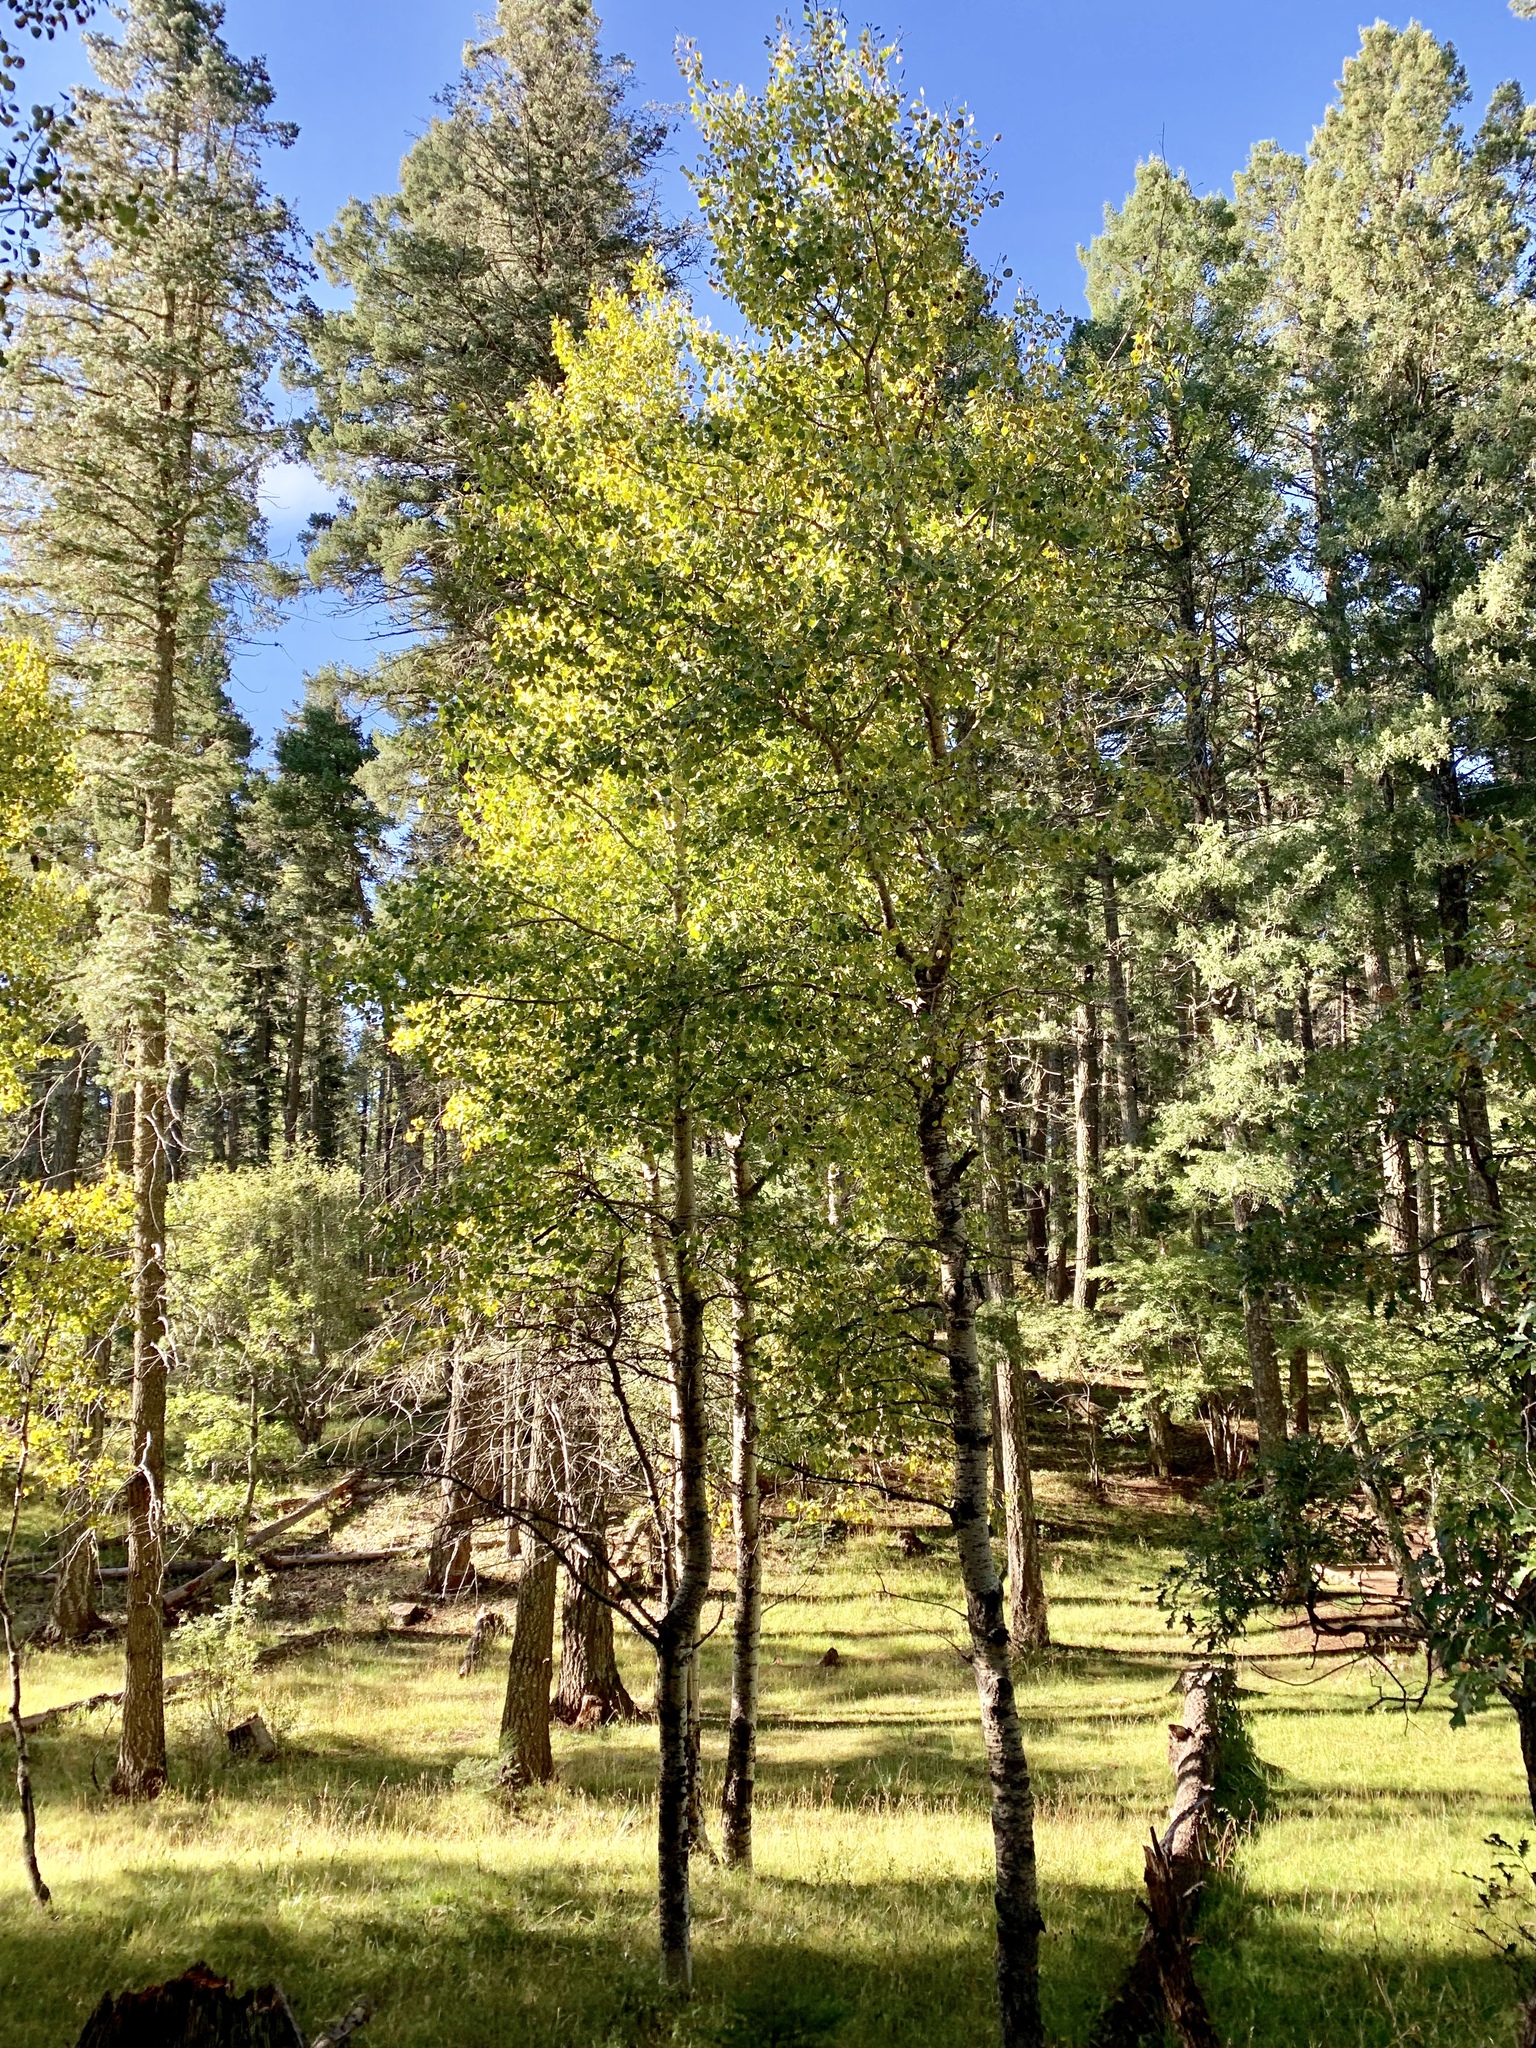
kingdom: Plantae
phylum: Tracheophyta
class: Magnoliopsida
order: Malpighiales
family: Salicaceae
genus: Populus
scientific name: Populus tremuloides
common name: Quaking aspen
